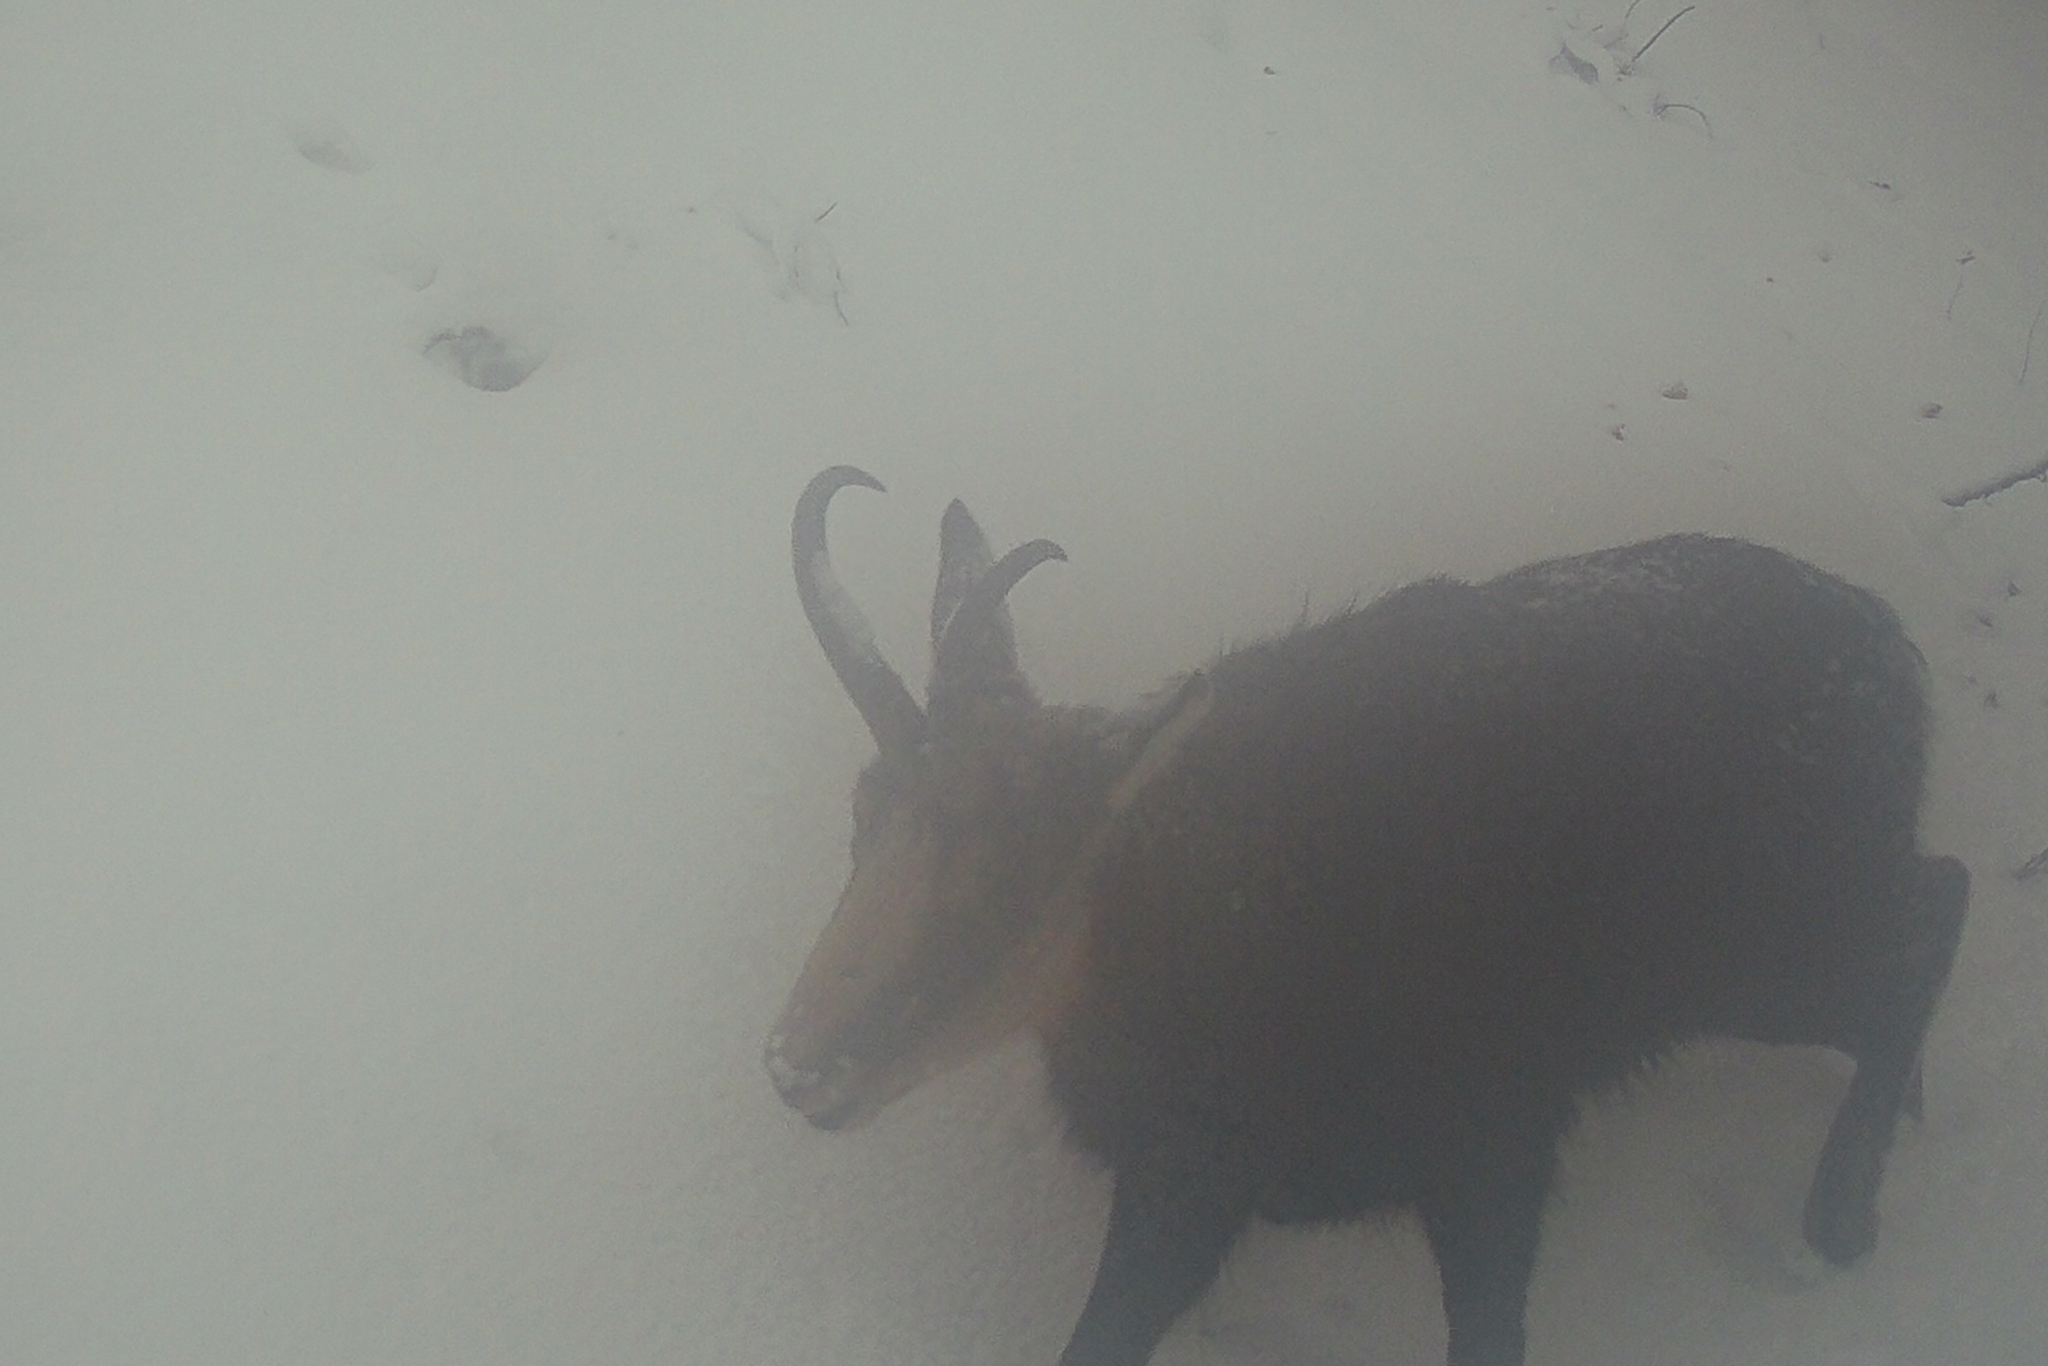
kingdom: Animalia
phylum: Chordata
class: Mammalia
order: Artiodactyla
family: Bovidae
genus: Rupicapra
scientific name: Rupicapra rupicapra
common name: Chamois
